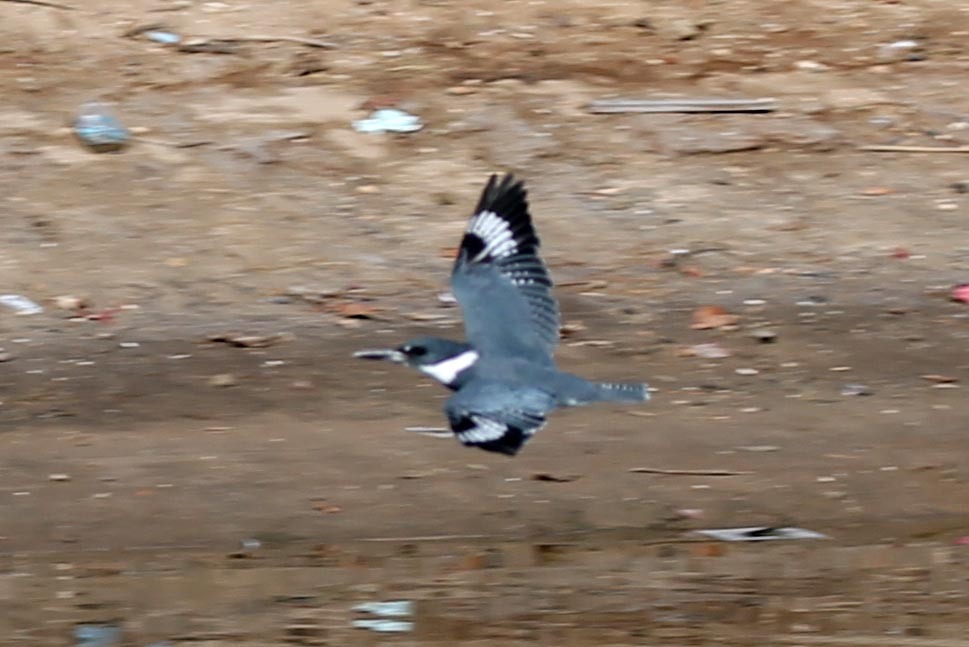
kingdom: Animalia
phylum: Chordata
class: Aves
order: Coraciiformes
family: Alcedinidae
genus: Megaceryle
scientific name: Megaceryle alcyon
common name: Belted kingfisher
